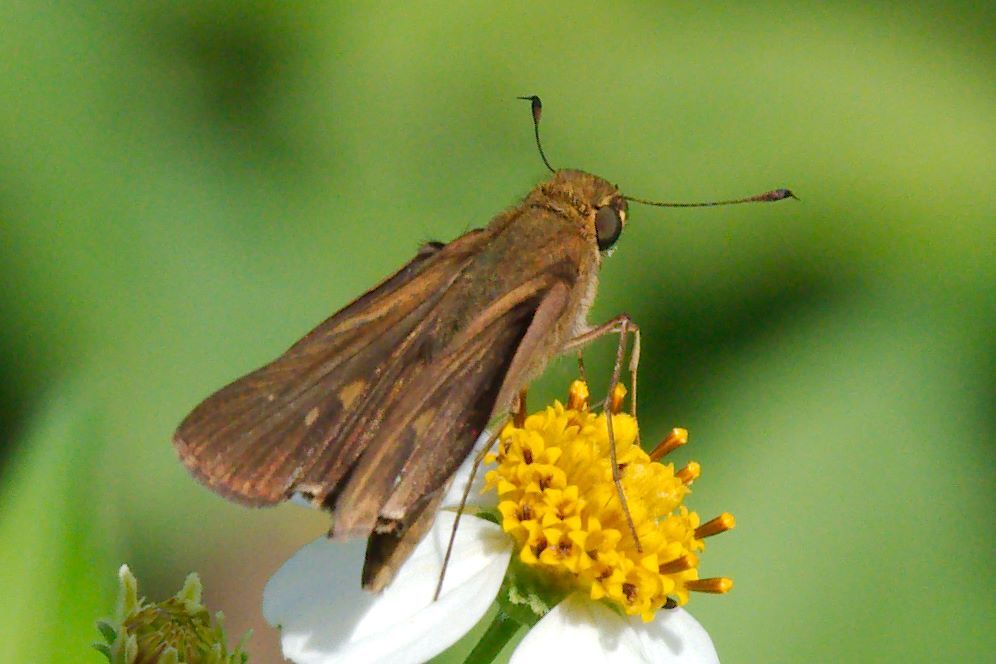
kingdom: Animalia
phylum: Arthropoda
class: Insecta
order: Lepidoptera
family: Hesperiidae
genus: Panoquina
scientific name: Panoquina ocola
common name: Ocola skipper
